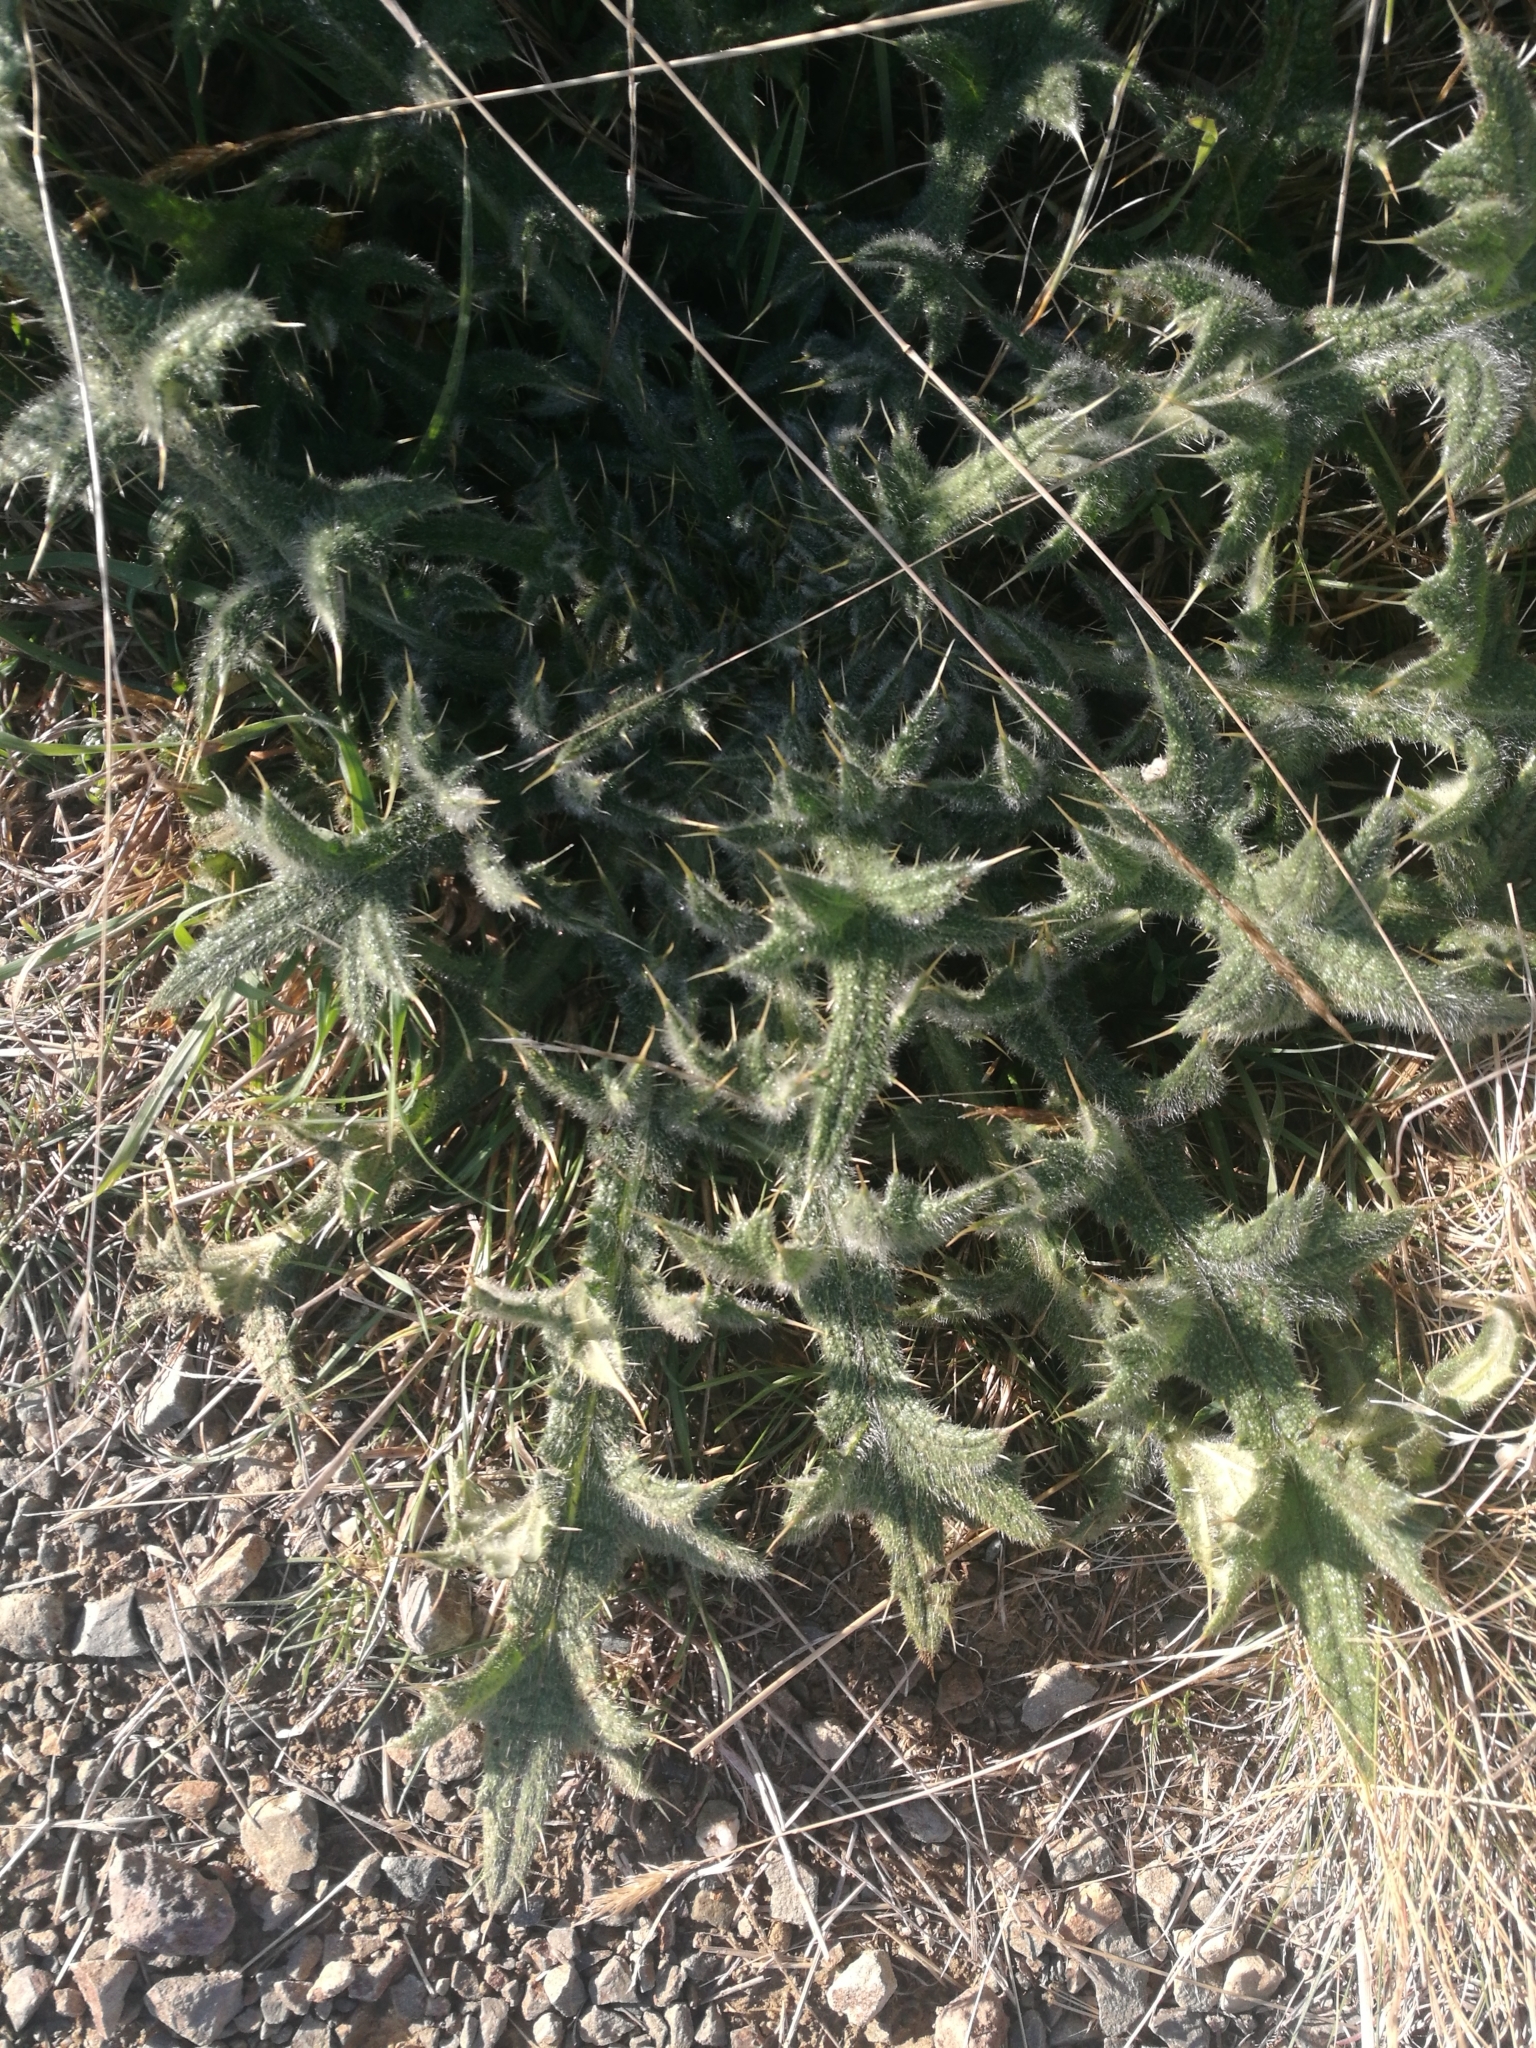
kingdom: Plantae
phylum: Tracheophyta
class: Magnoliopsida
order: Asterales
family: Asteraceae
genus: Cirsium
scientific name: Cirsium vulgare
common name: Bull thistle
